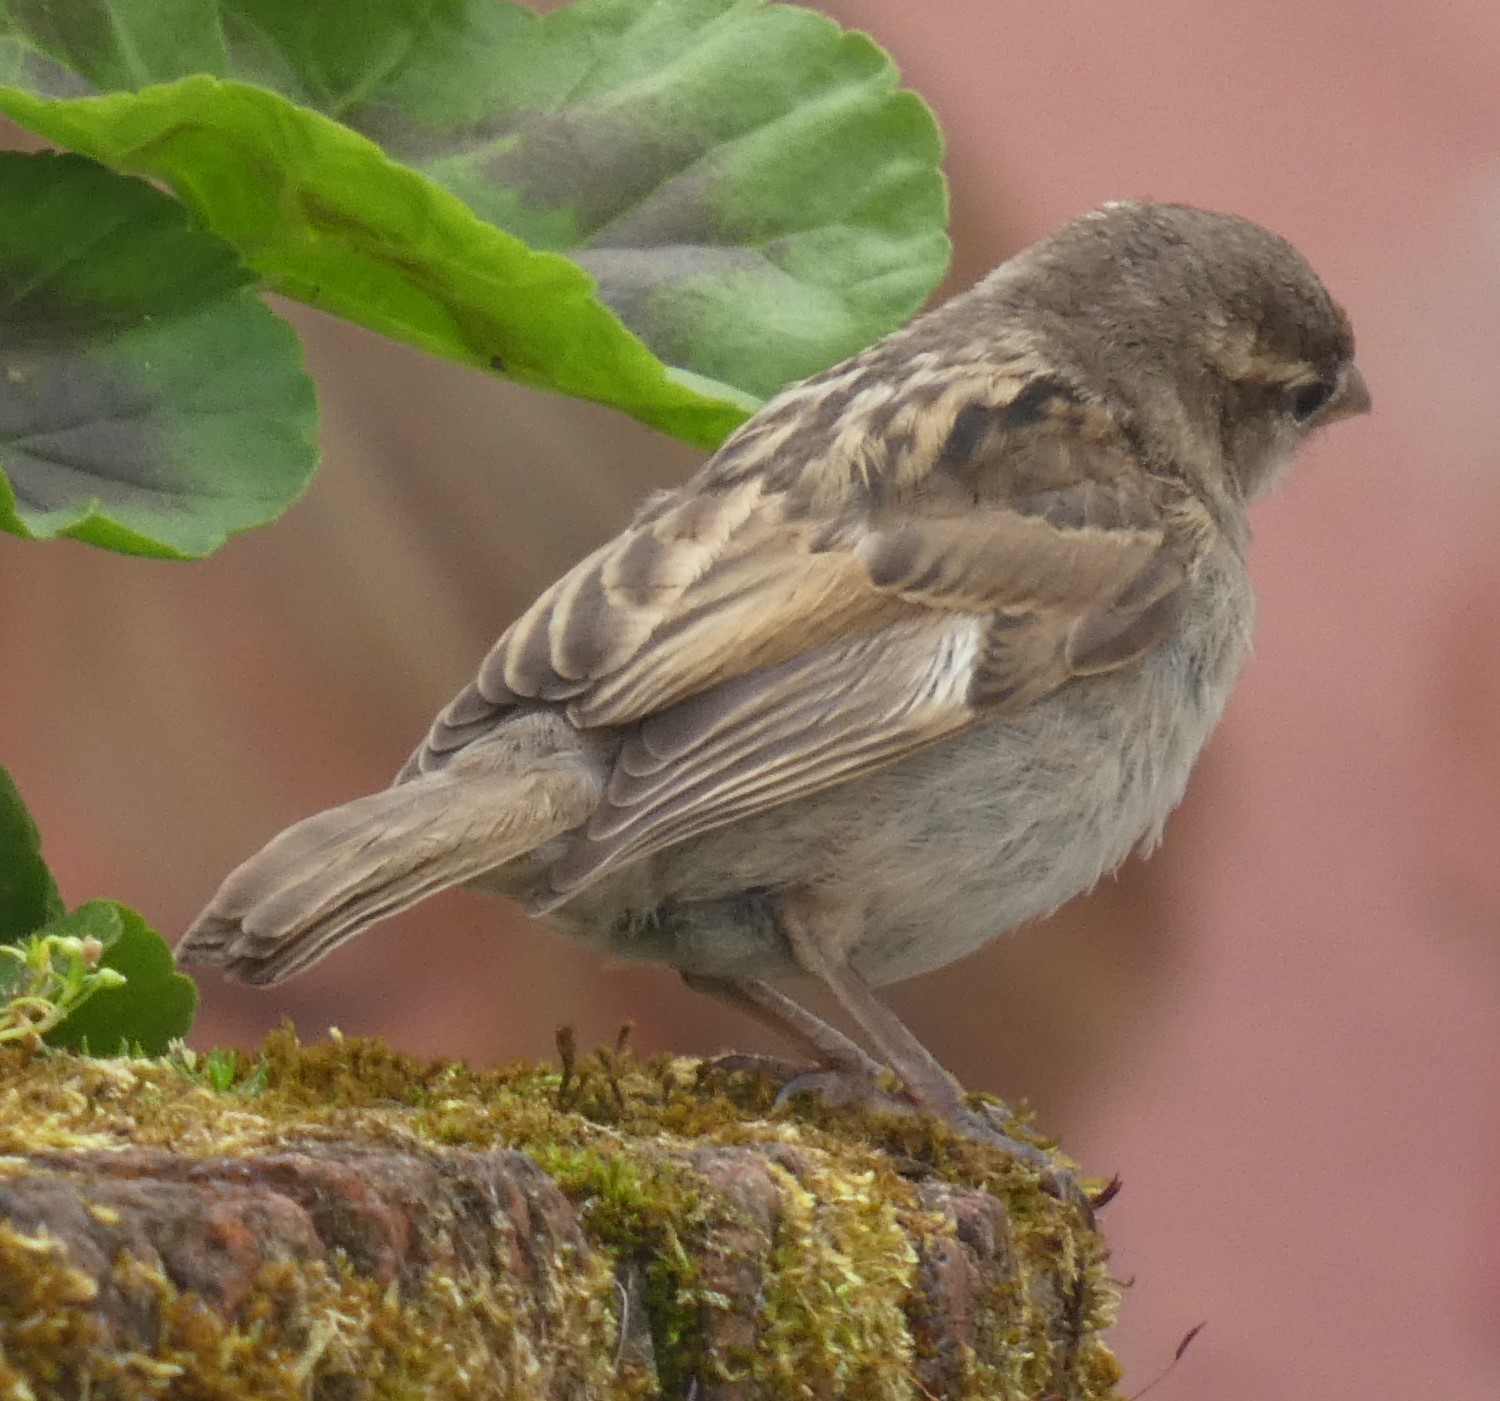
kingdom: Animalia
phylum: Chordata
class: Aves
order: Passeriformes
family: Passeridae
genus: Passer
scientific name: Passer domesticus
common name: House sparrow
